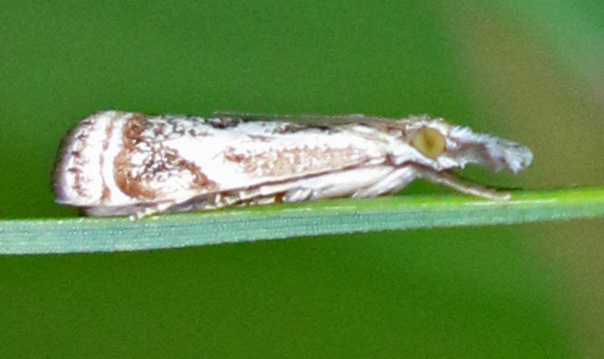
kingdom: Animalia
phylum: Arthropoda
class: Insecta
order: Lepidoptera
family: Crambidae
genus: Microcrambus
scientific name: Microcrambus elegans
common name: Elegant grass-veneer
